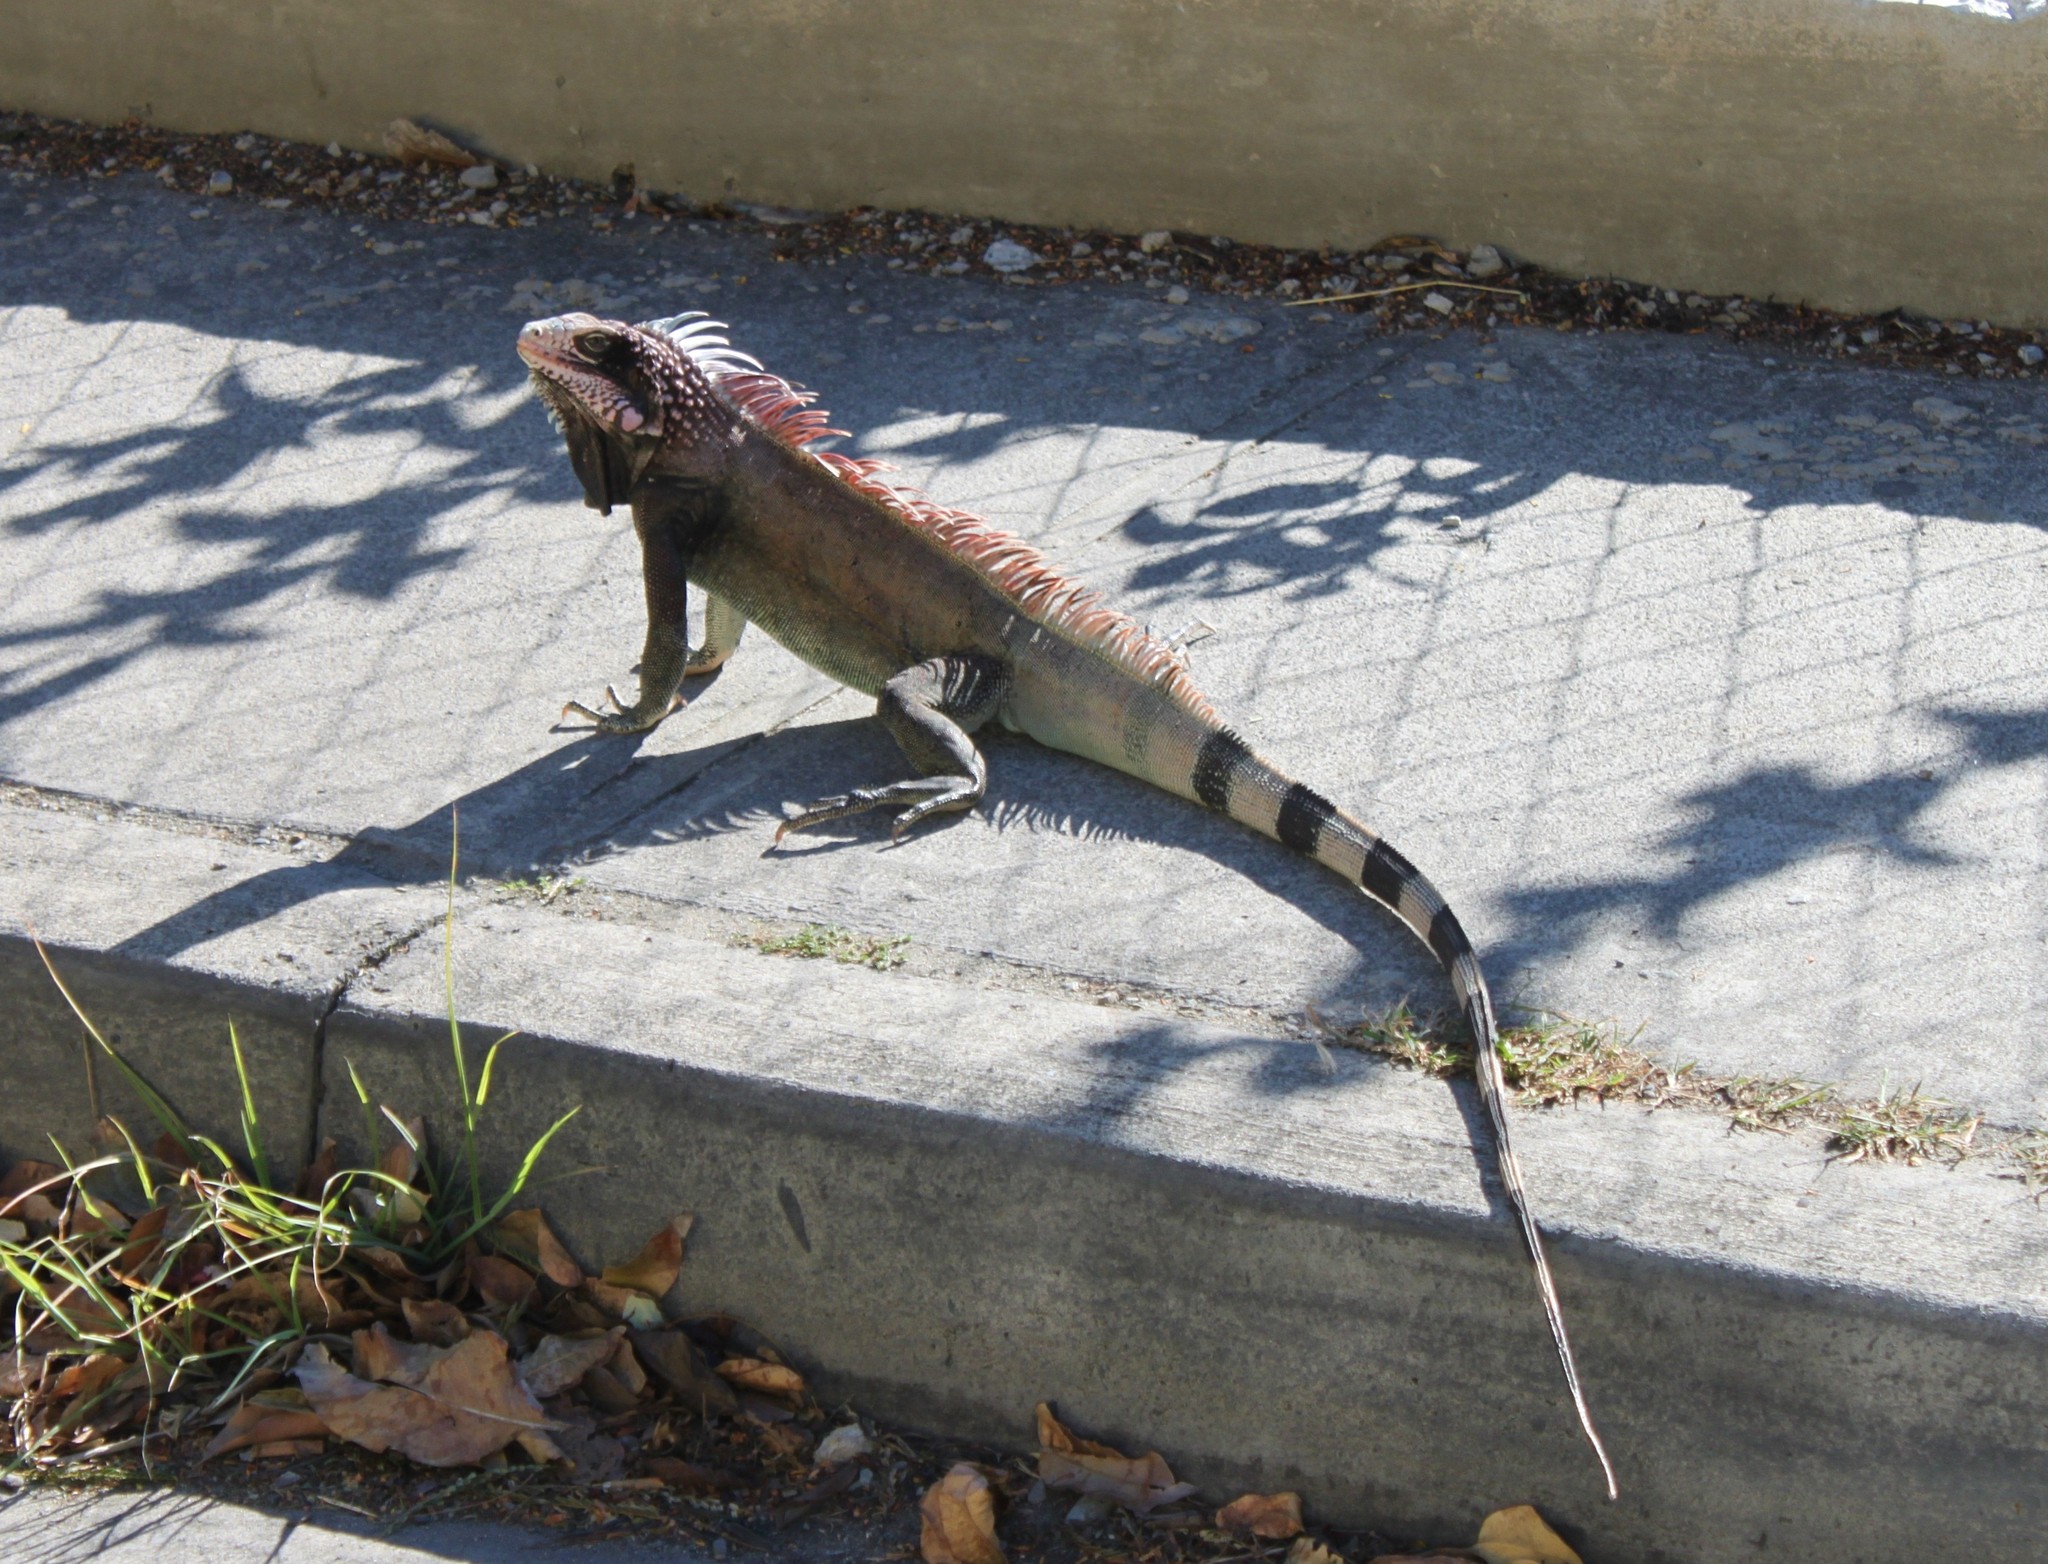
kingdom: Animalia
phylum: Chordata
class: Squamata
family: Iguanidae
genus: Iguana
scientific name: Iguana iguana
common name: Green iguana
